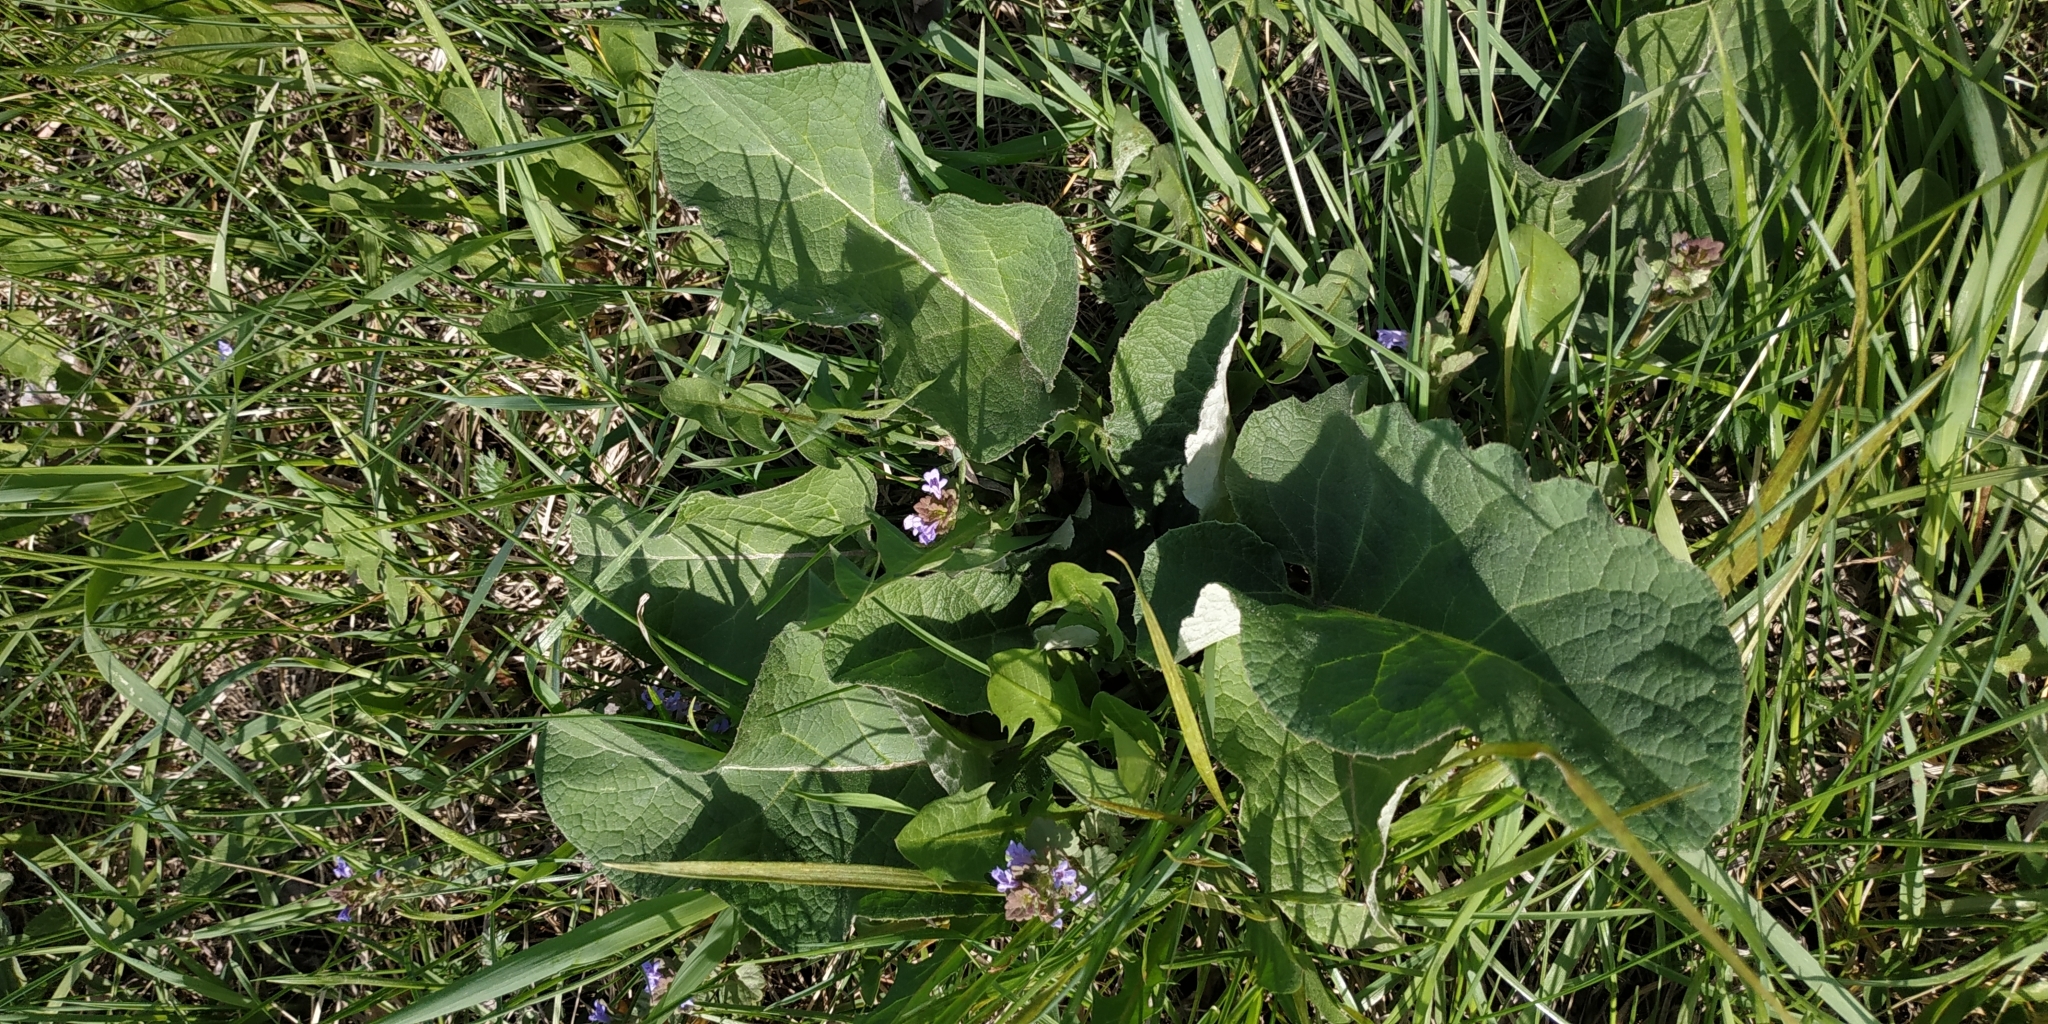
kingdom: Plantae
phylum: Tracheophyta
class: Magnoliopsida
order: Asterales
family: Asteraceae
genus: Arctium
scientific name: Arctium tomentosum
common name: Woolly burdock
